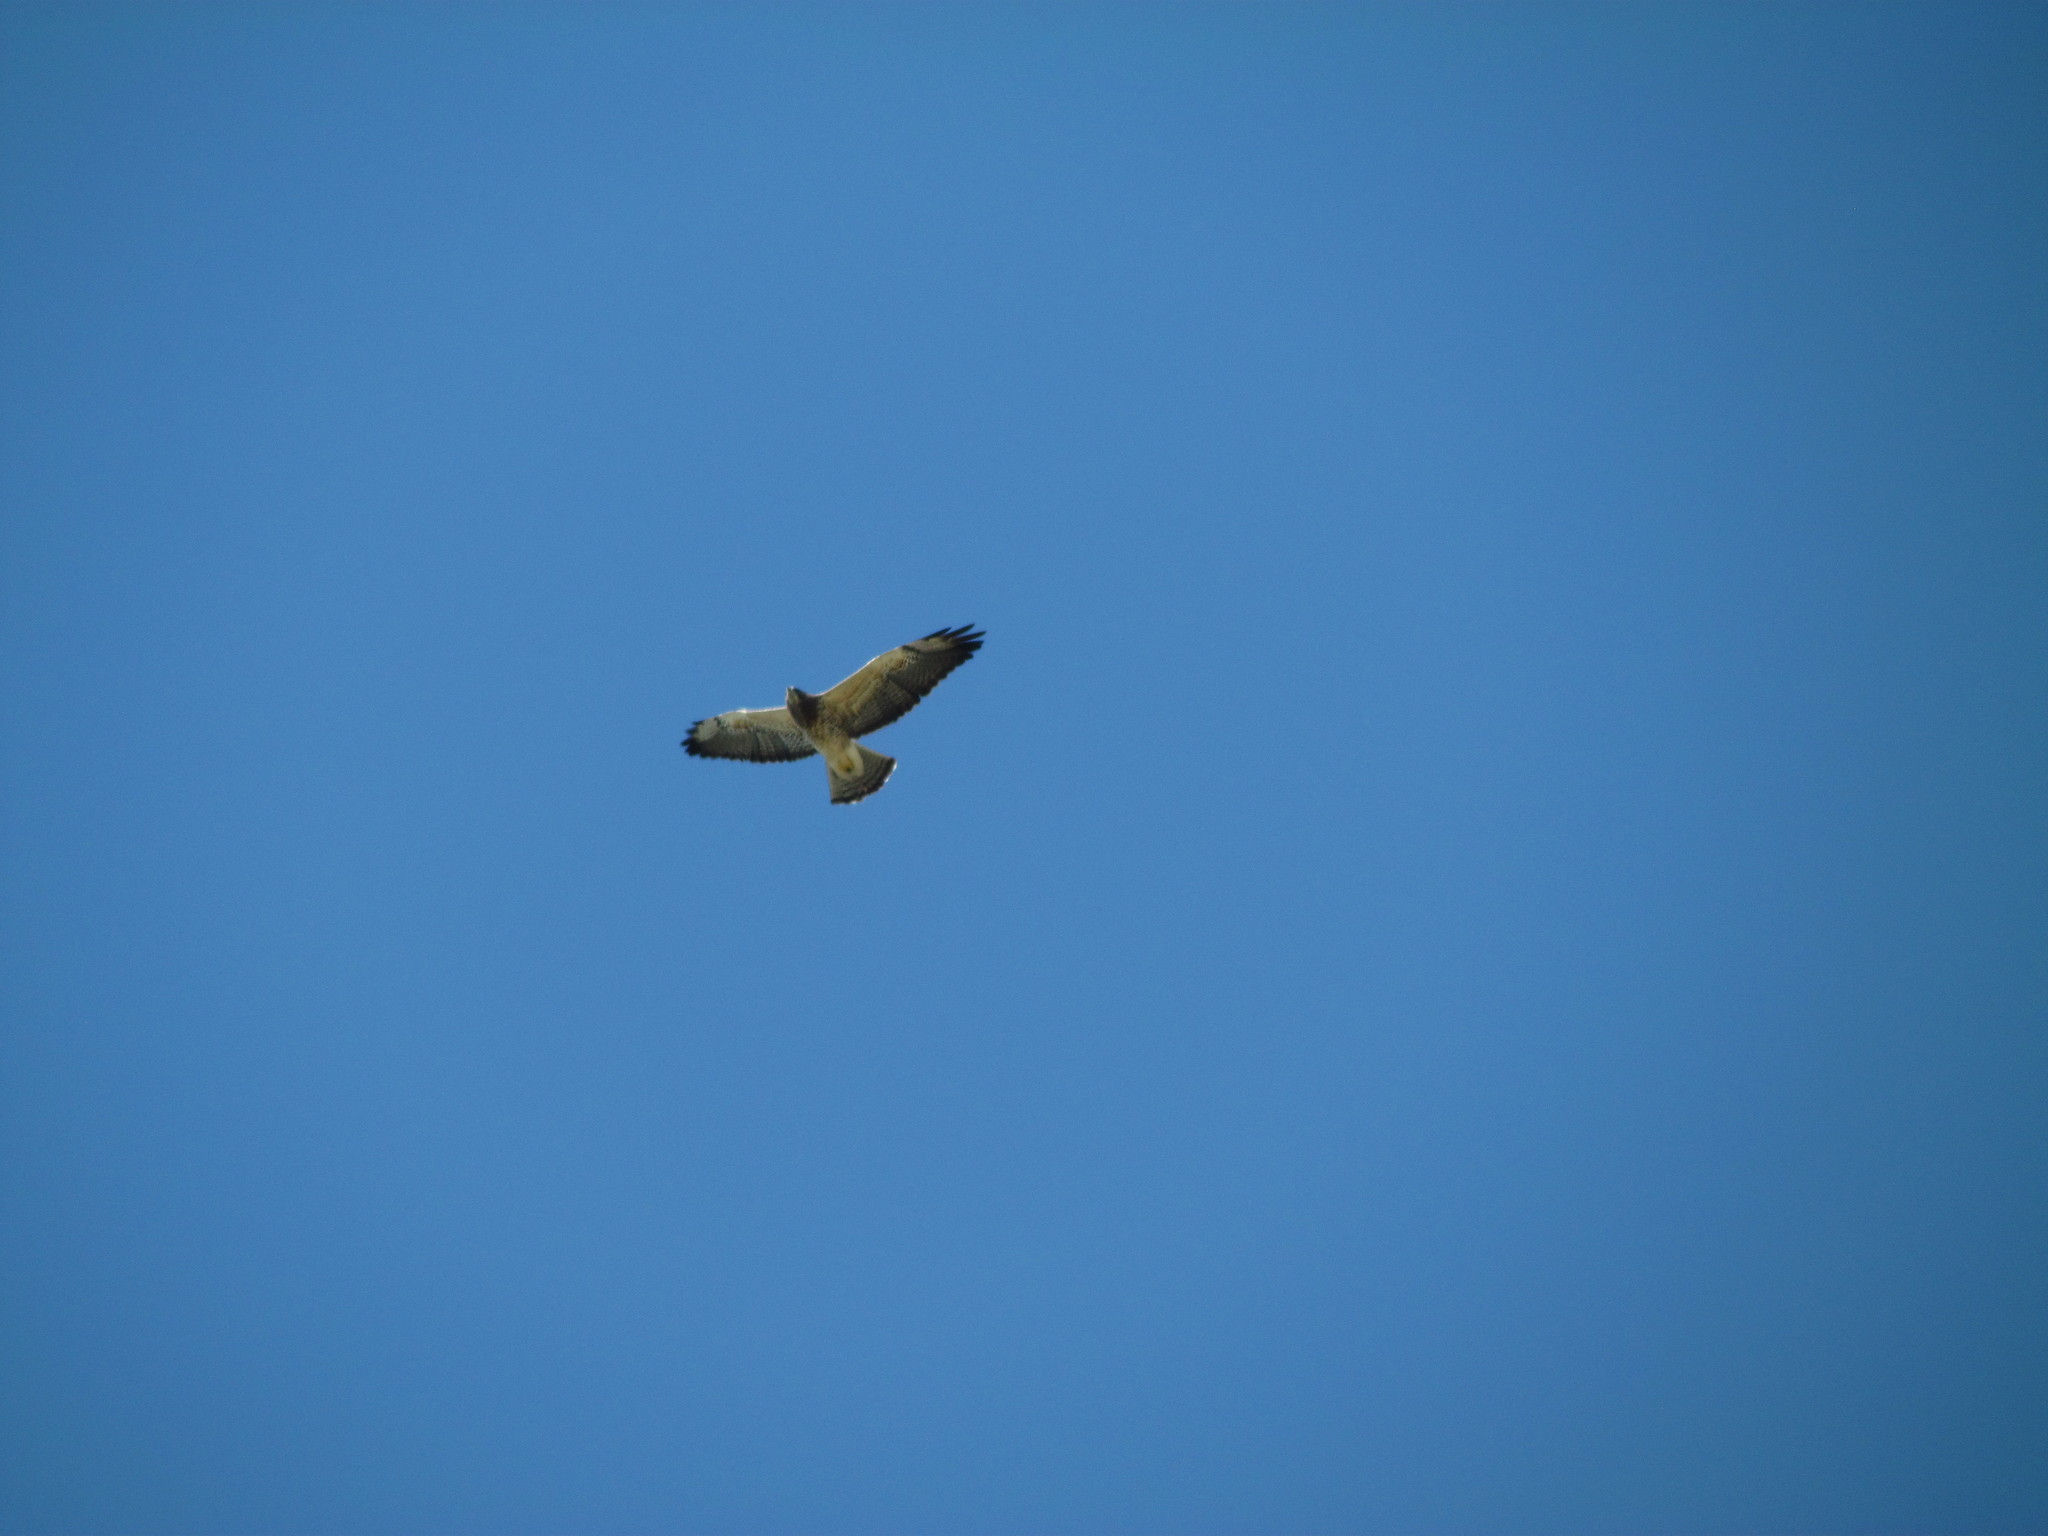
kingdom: Animalia
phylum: Chordata
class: Aves
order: Accipitriformes
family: Accipitridae
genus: Buteo
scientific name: Buteo swainsoni
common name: Swainson's hawk
